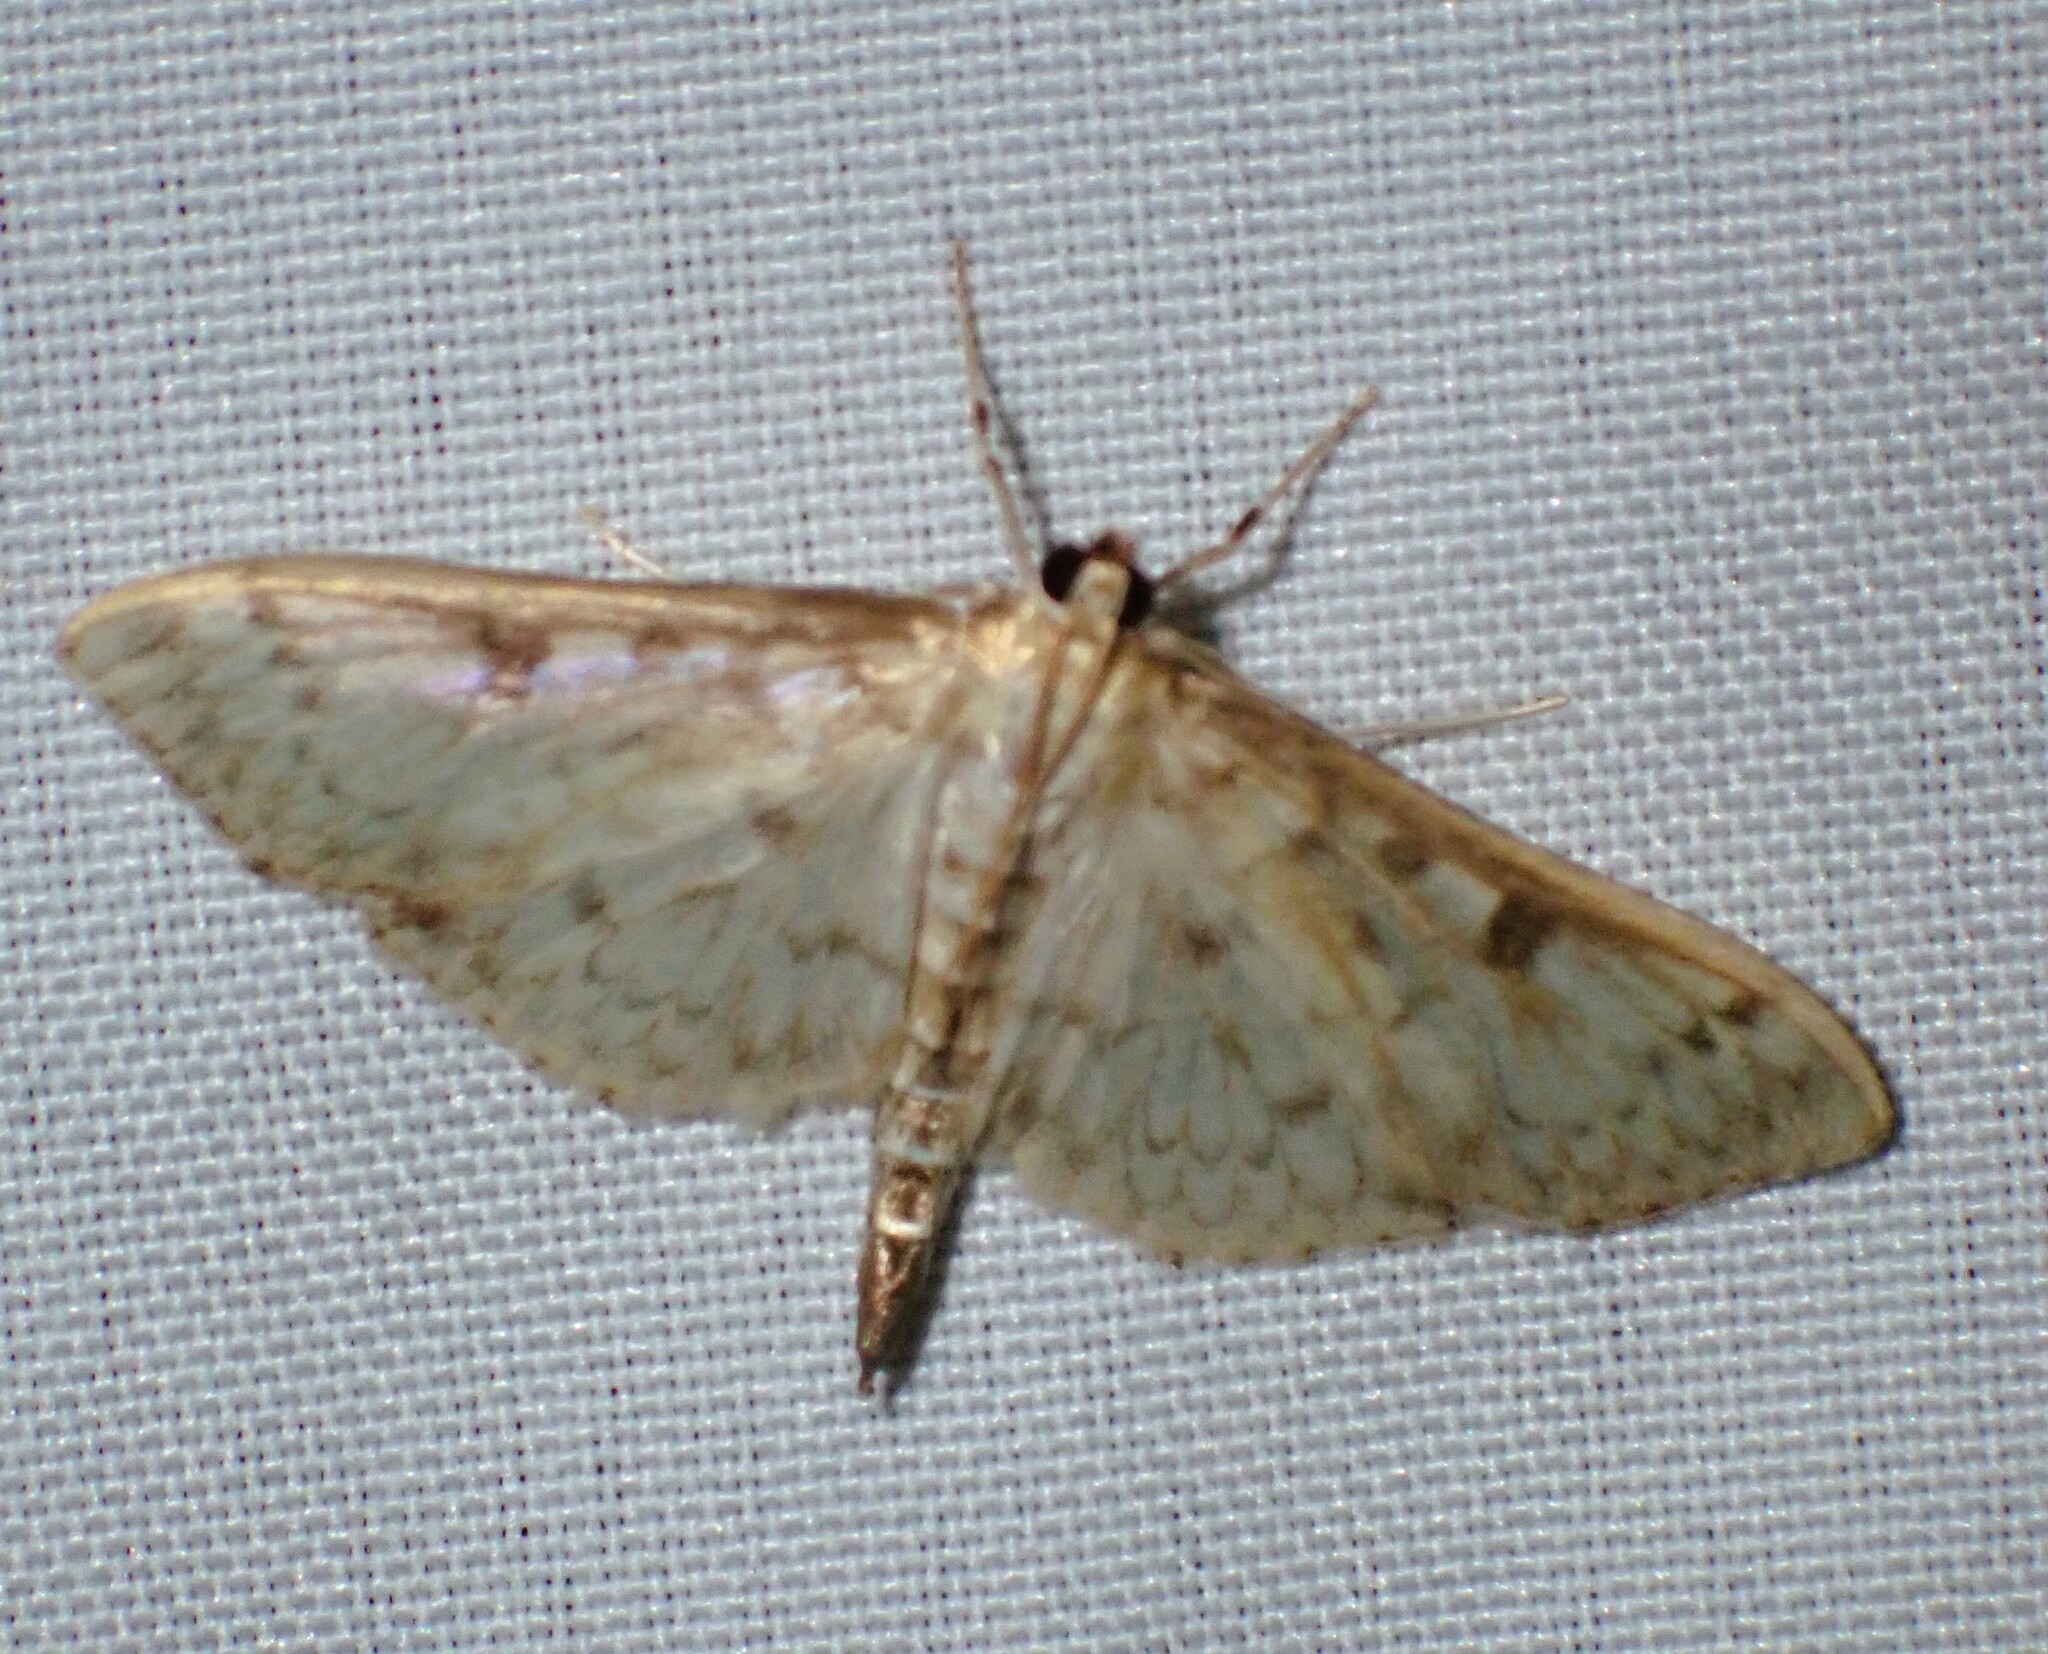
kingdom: Animalia
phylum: Arthropoda
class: Insecta
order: Lepidoptera
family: Crambidae
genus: Herpetogramma
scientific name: Herpetogramma aquilonalis
